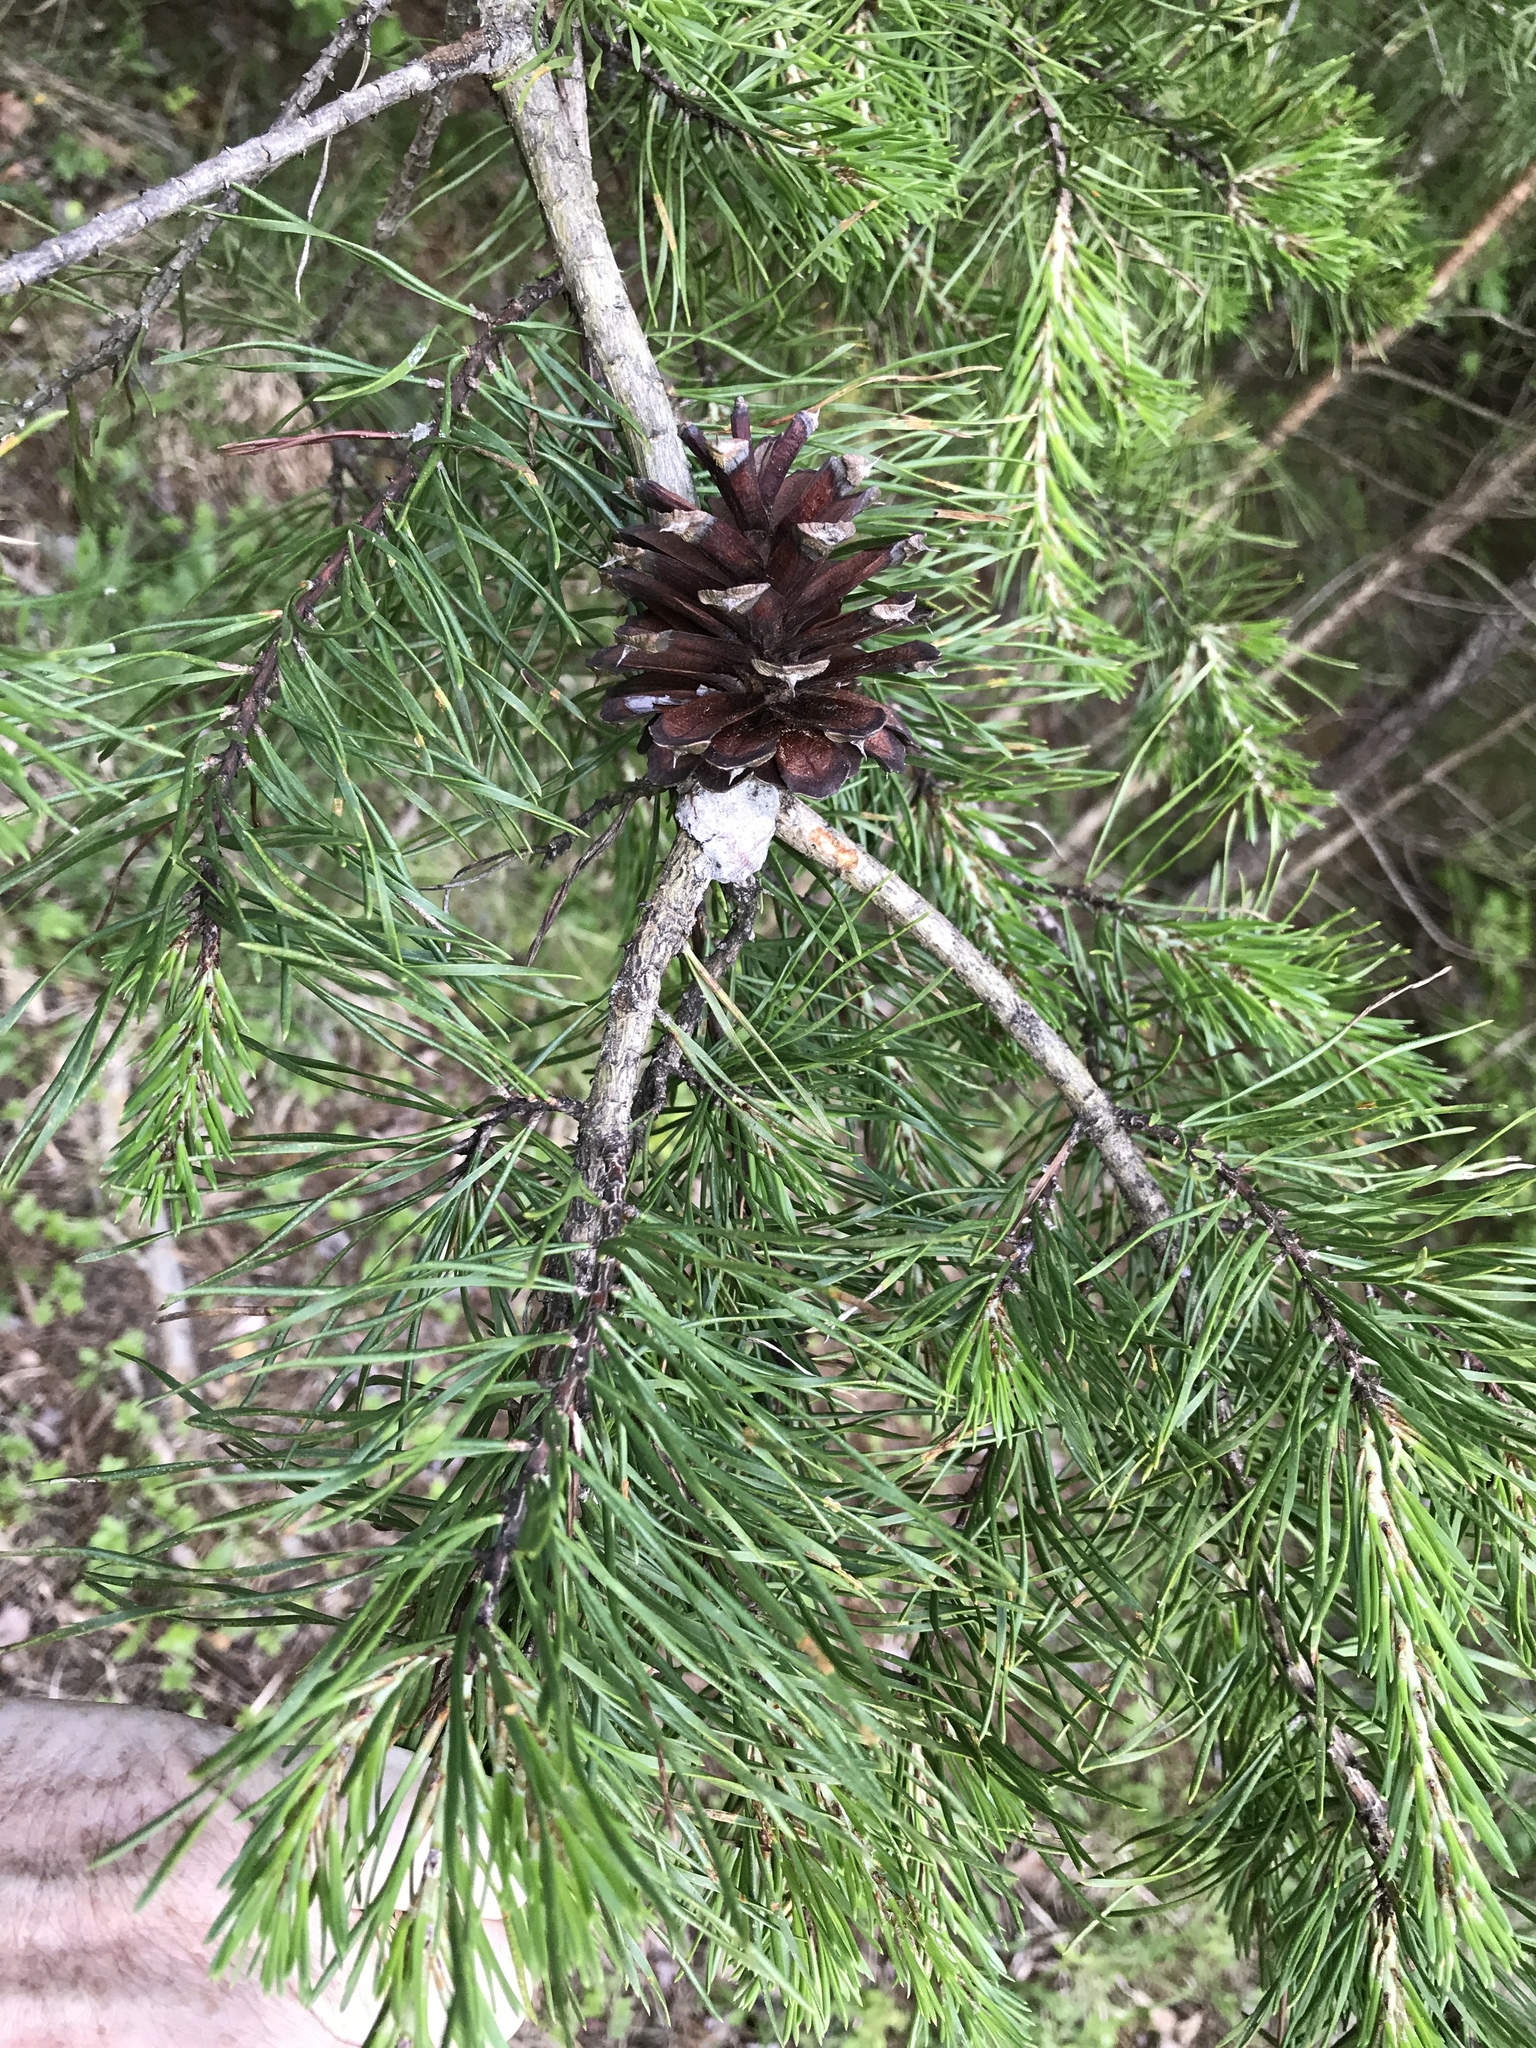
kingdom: Plantae
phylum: Tracheophyta
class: Pinopsida
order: Pinales
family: Pinaceae
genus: Pinus
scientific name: Pinus virginiana
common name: Scrub pine
